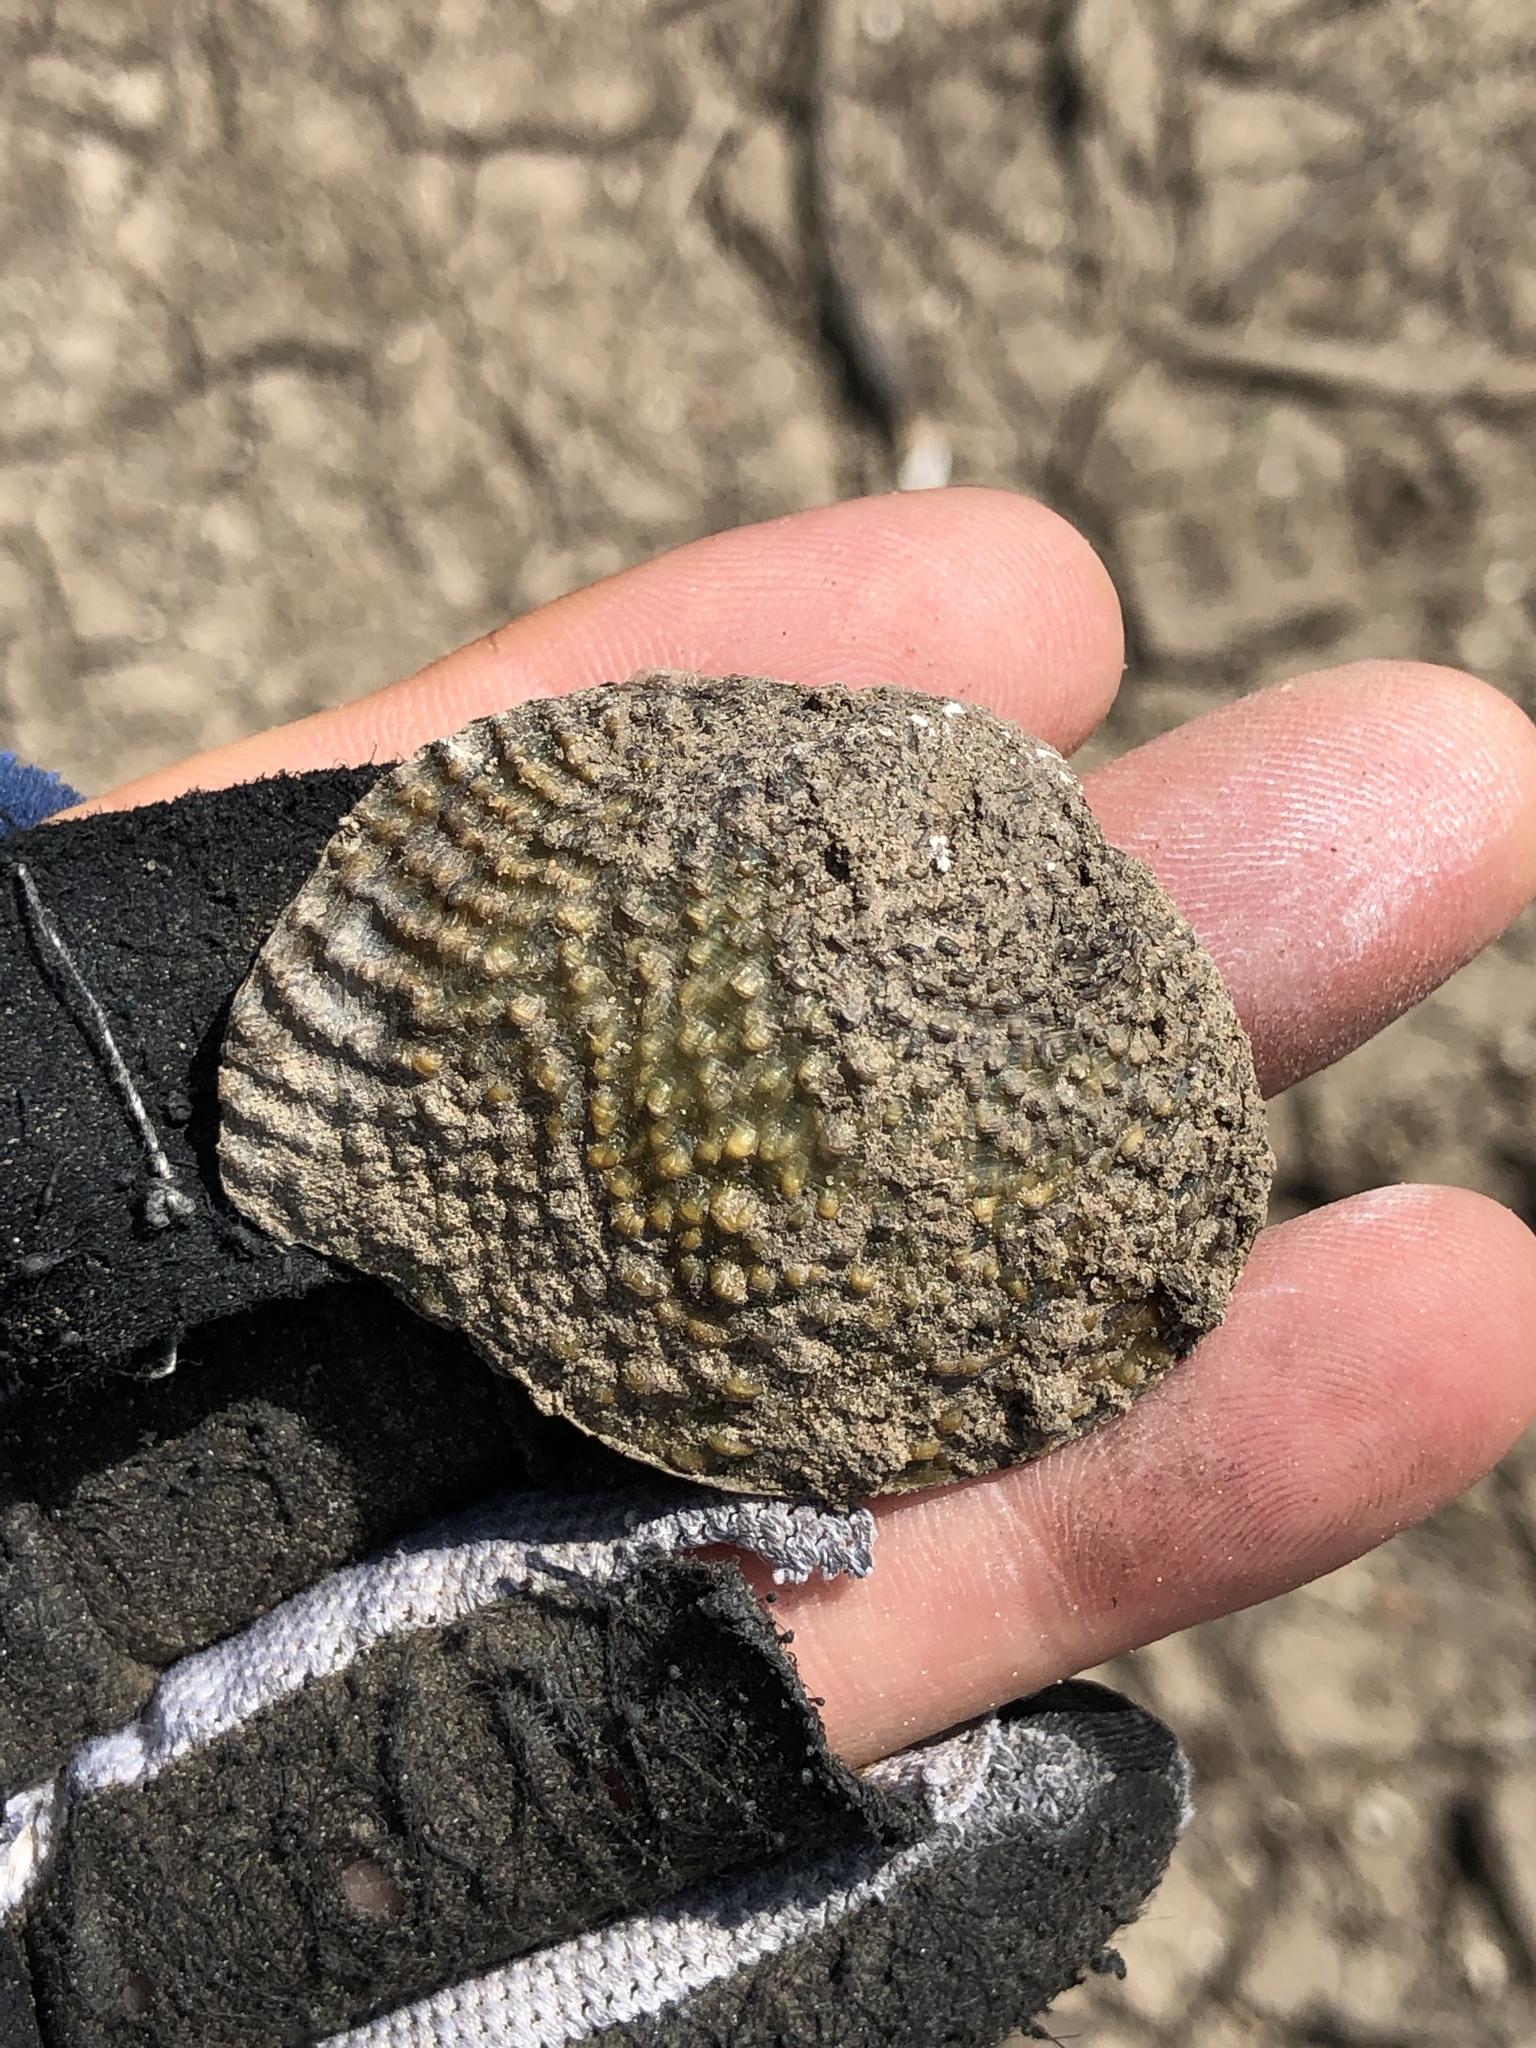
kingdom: Animalia
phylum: Mollusca
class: Bivalvia
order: Unionida
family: Unionidae
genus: Quadrula
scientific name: Quadrula quadrula
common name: Mapleleaf
